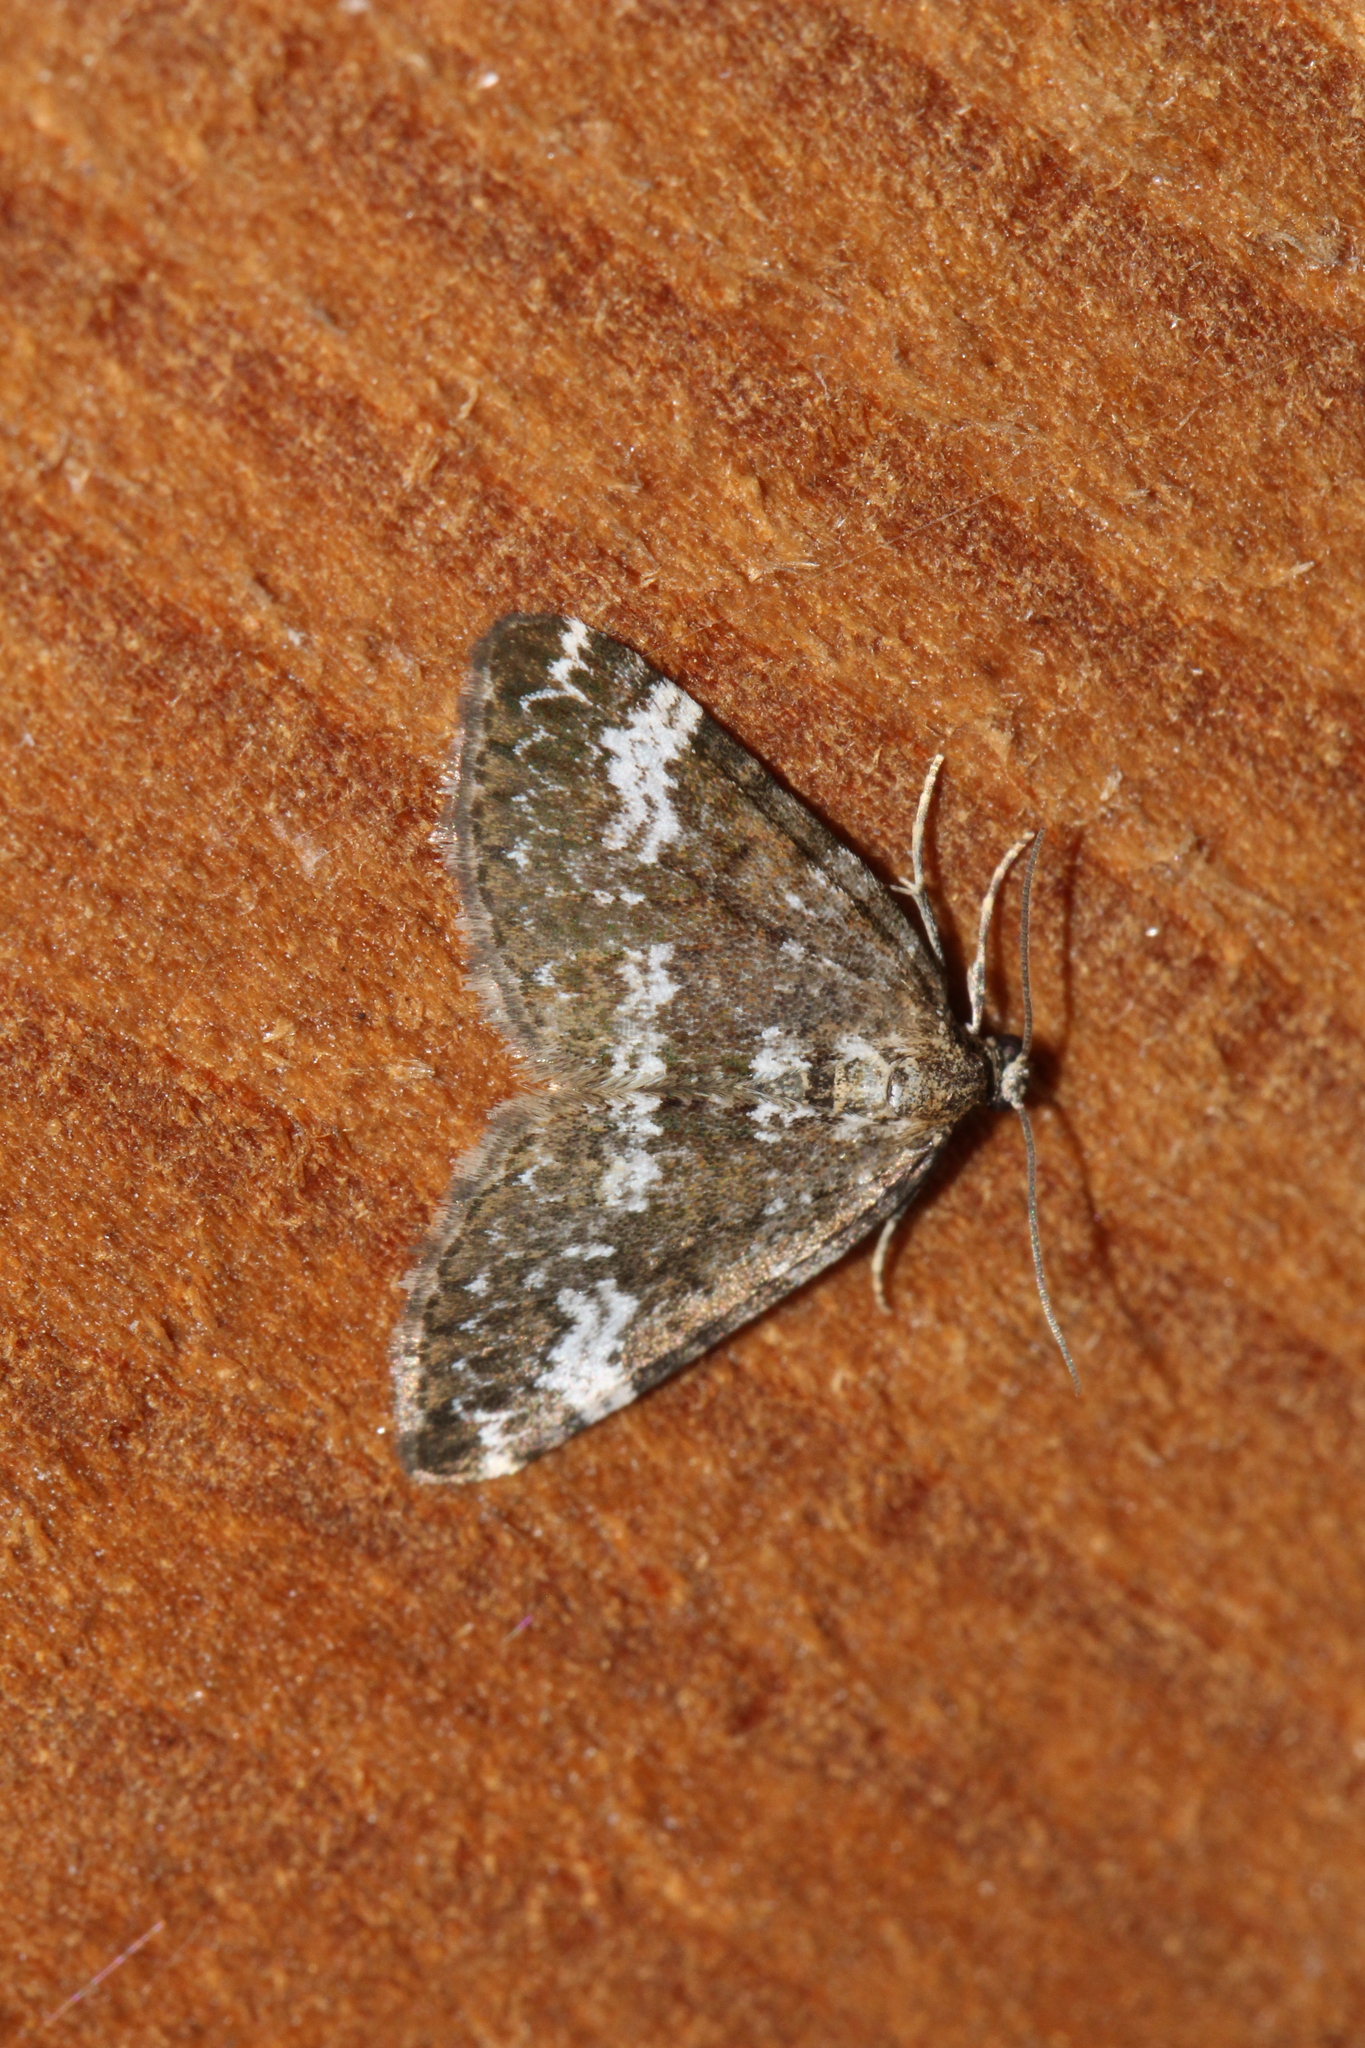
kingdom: Animalia
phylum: Arthropoda
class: Insecta
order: Lepidoptera
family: Geometridae
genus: Perizoma
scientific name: Perizoma alchemillata
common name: Small rivulet
